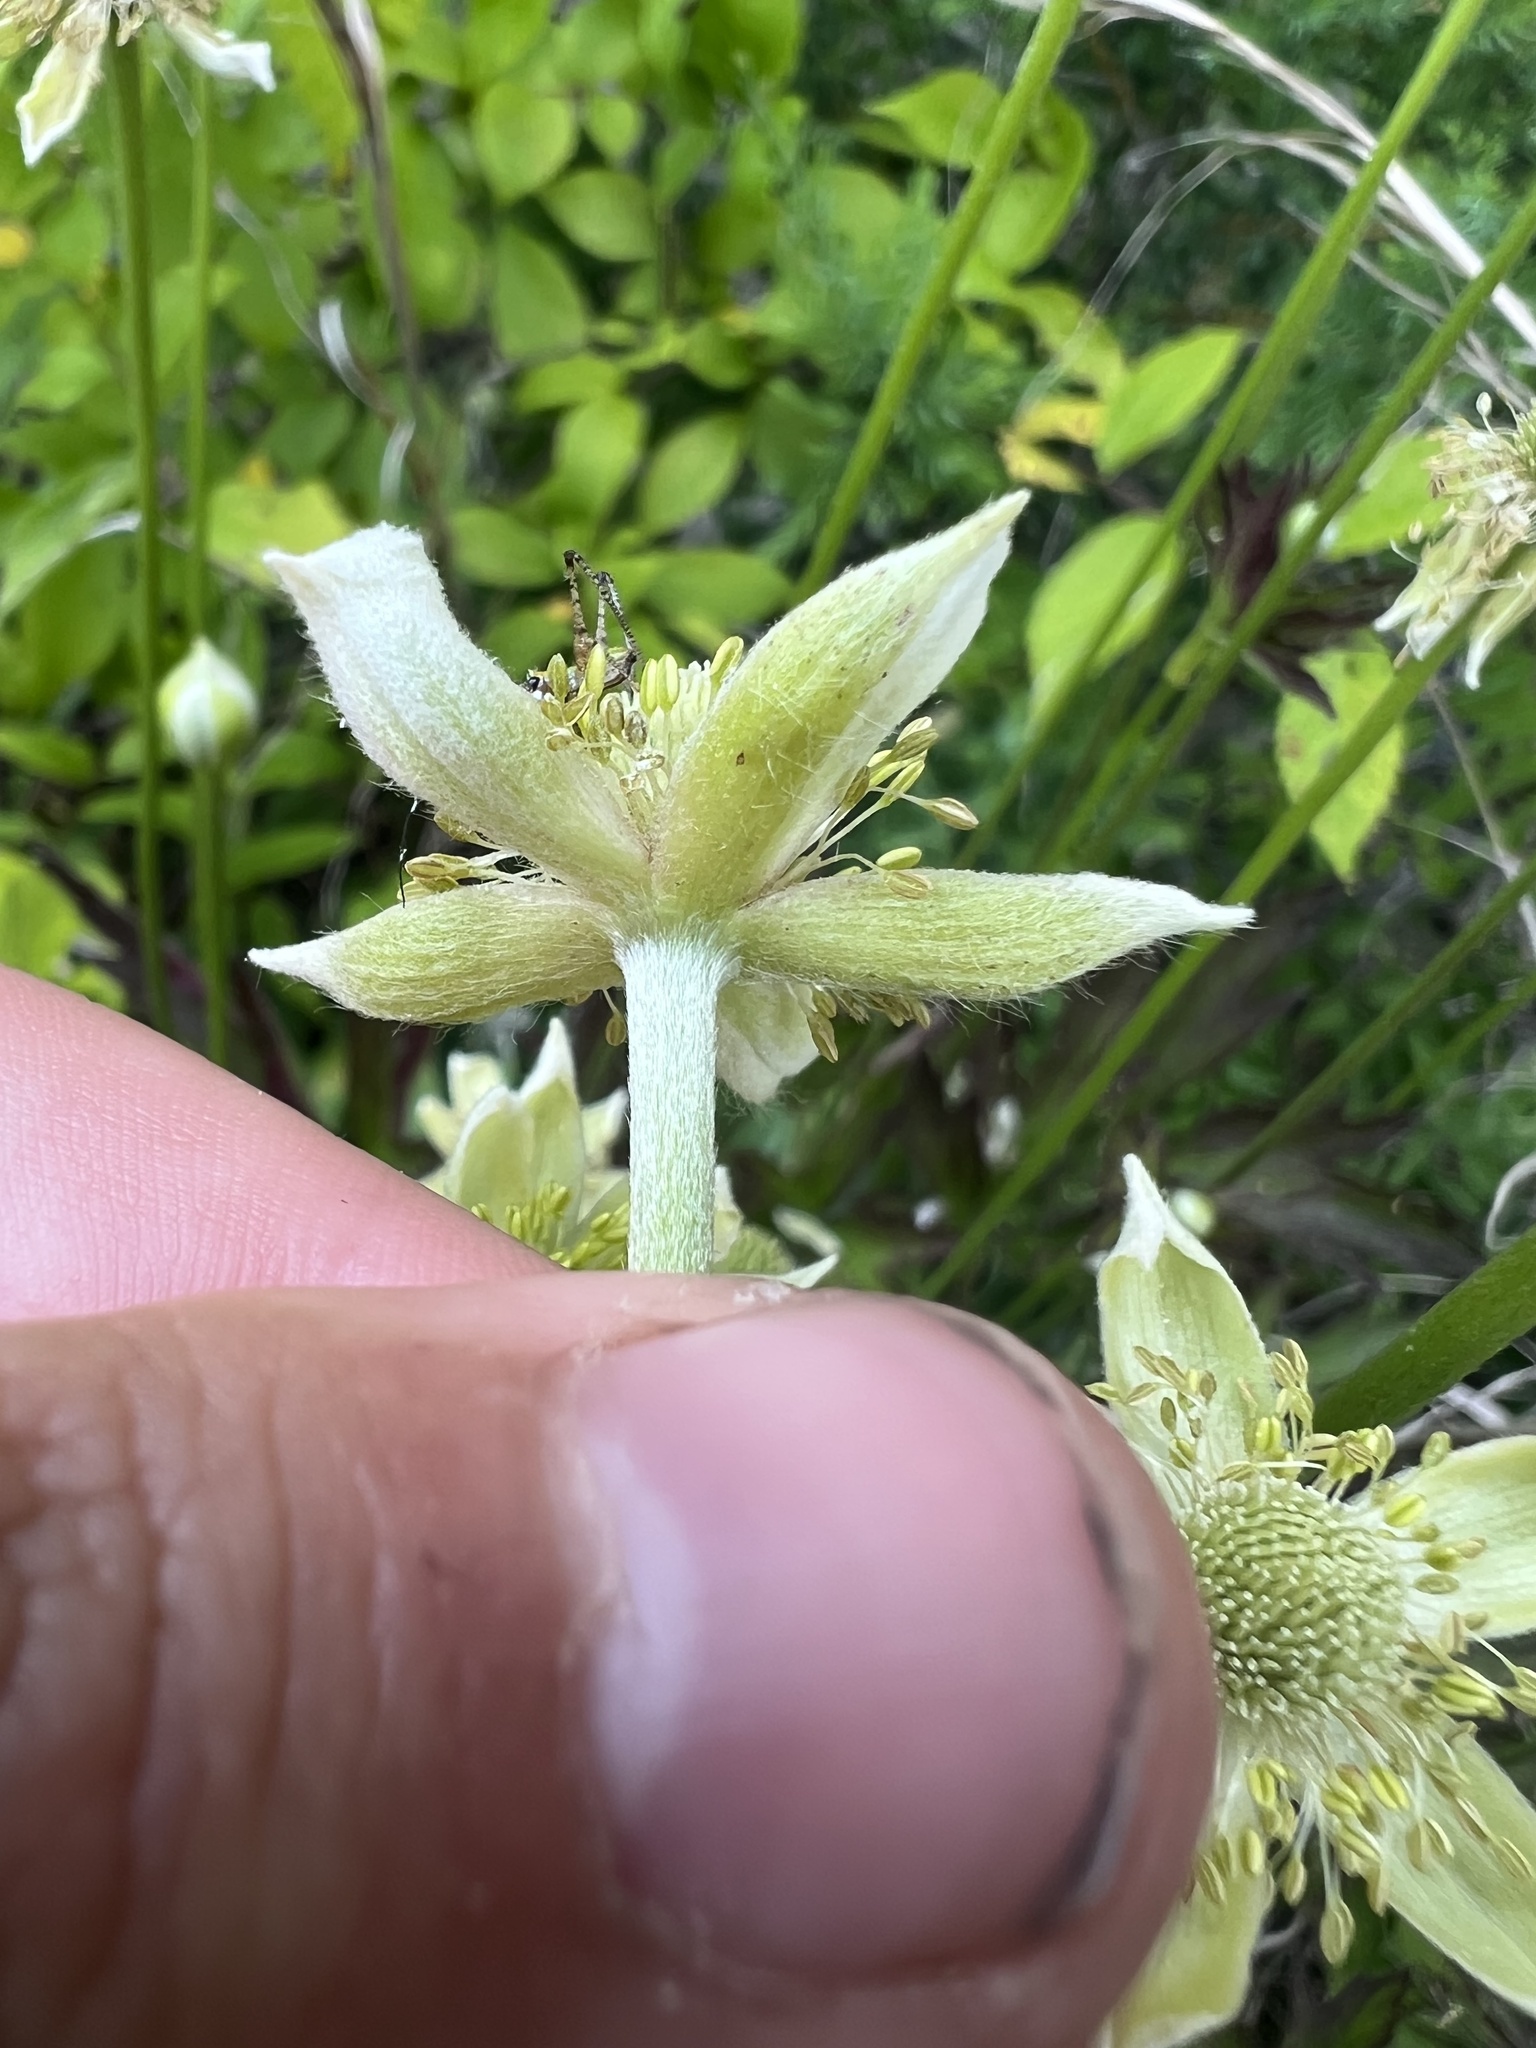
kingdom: Plantae
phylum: Tracheophyta
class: Magnoliopsida
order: Ranunculales
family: Ranunculaceae
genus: Anemone
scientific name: Anemone virginiana
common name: Tall anemone
